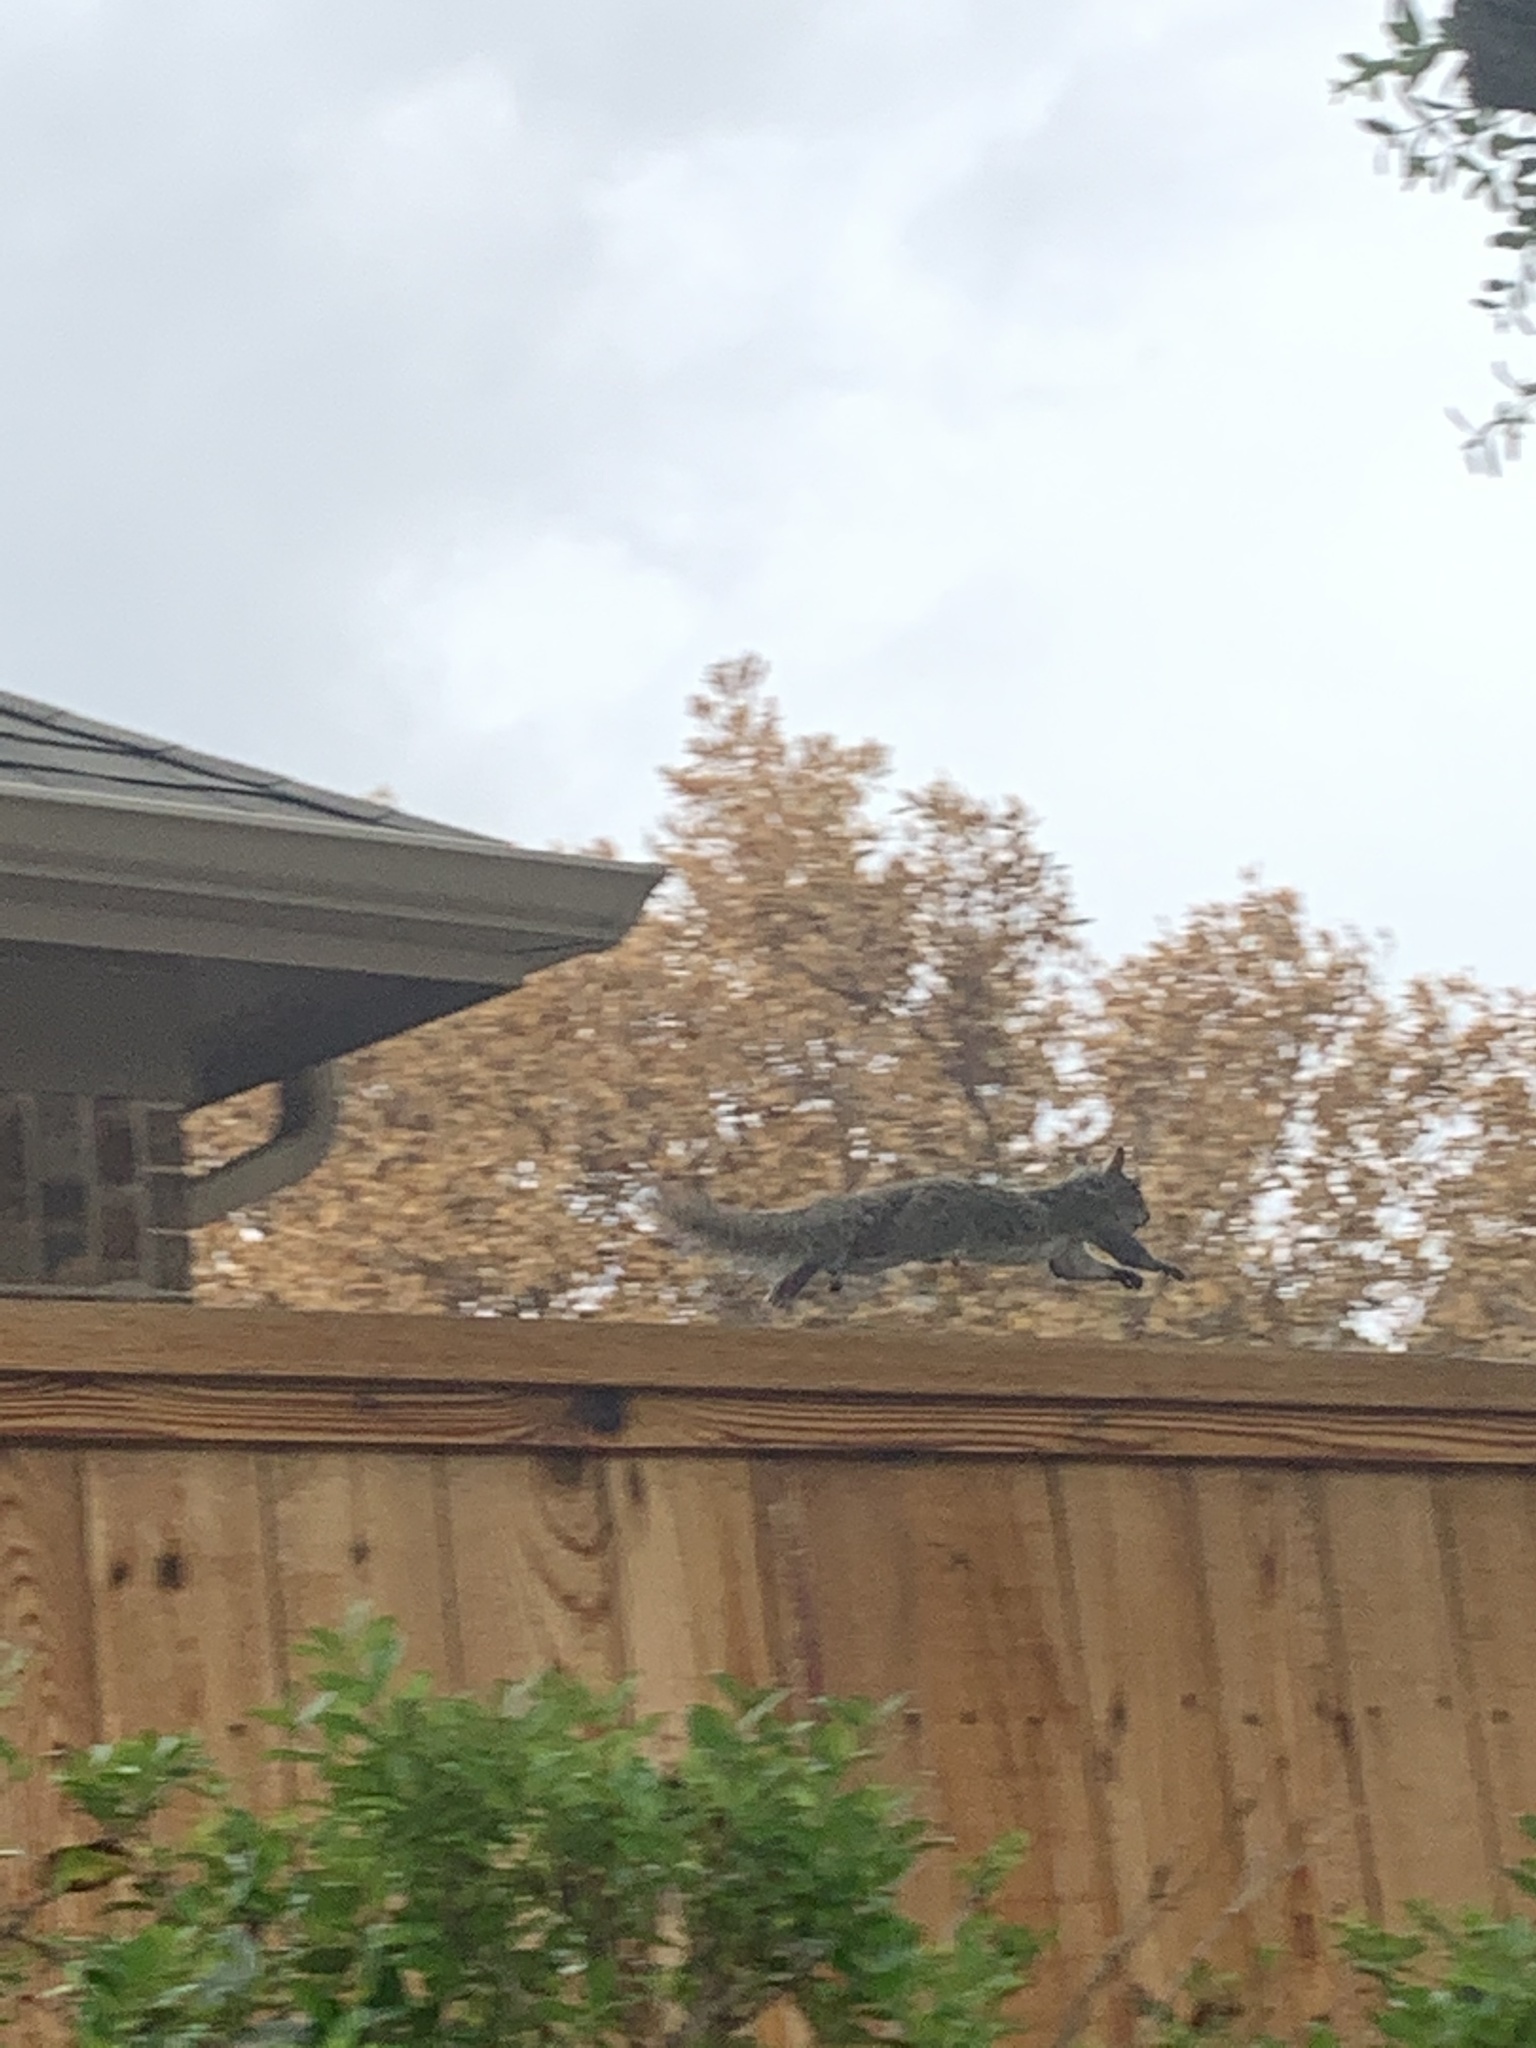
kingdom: Animalia
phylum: Chordata
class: Mammalia
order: Rodentia
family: Sciuridae
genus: Sciurus
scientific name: Sciurus carolinensis
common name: Eastern gray squirrel
